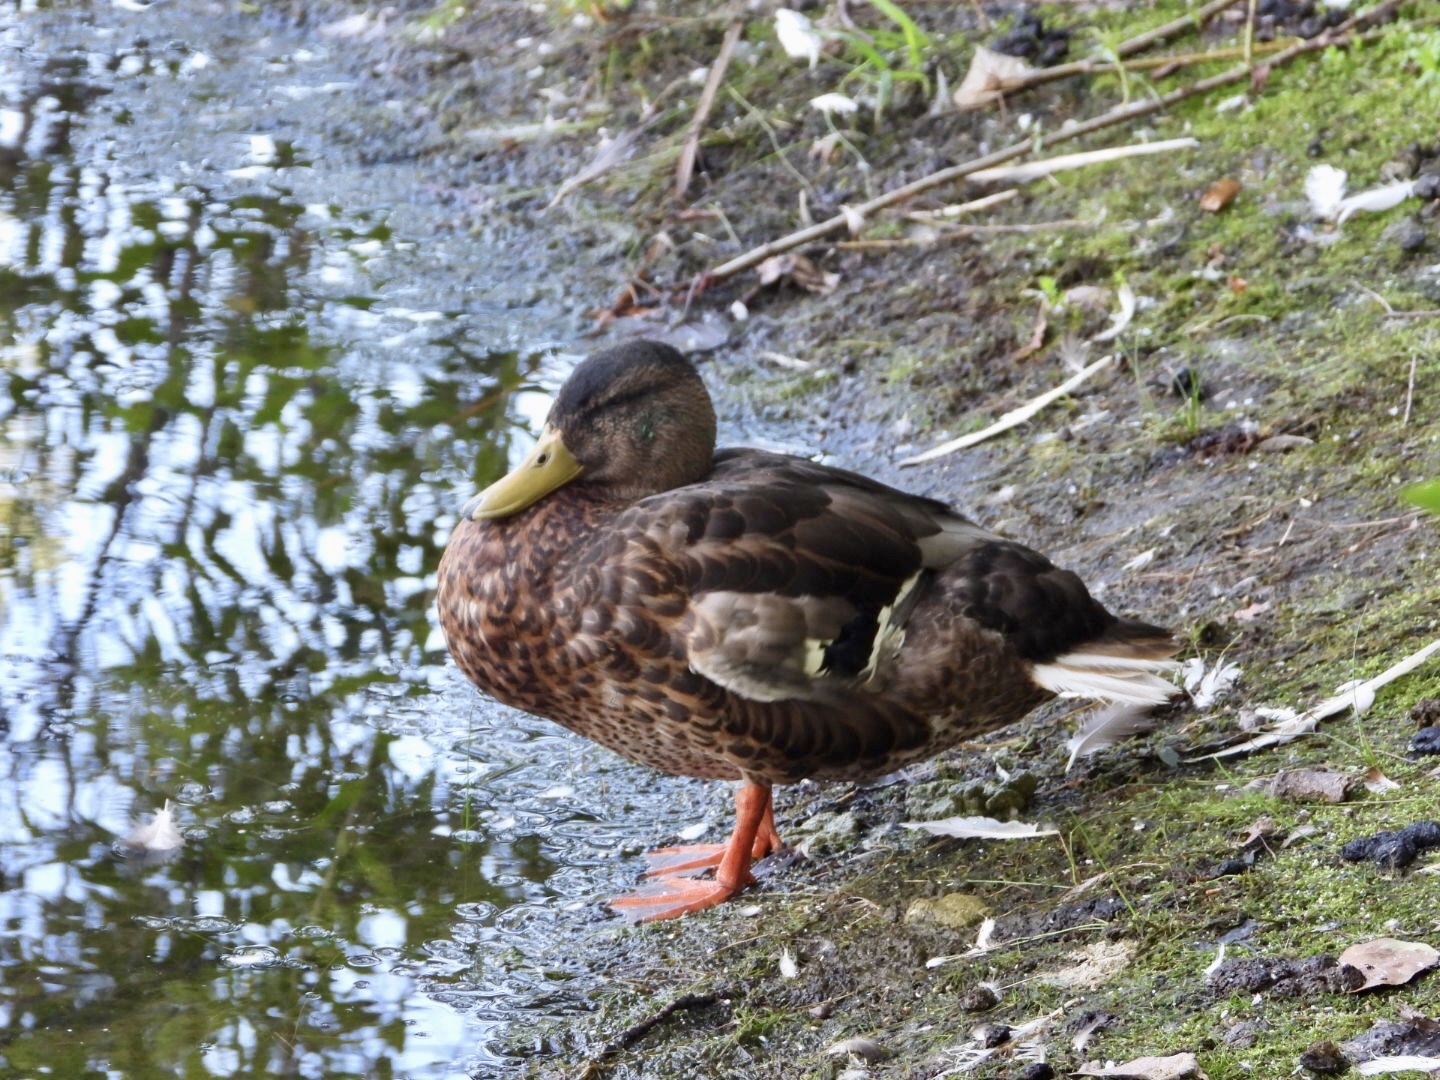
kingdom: Animalia
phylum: Chordata
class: Aves
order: Anseriformes
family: Anatidae
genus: Anas
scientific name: Anas platyrhynchos
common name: Mallard
